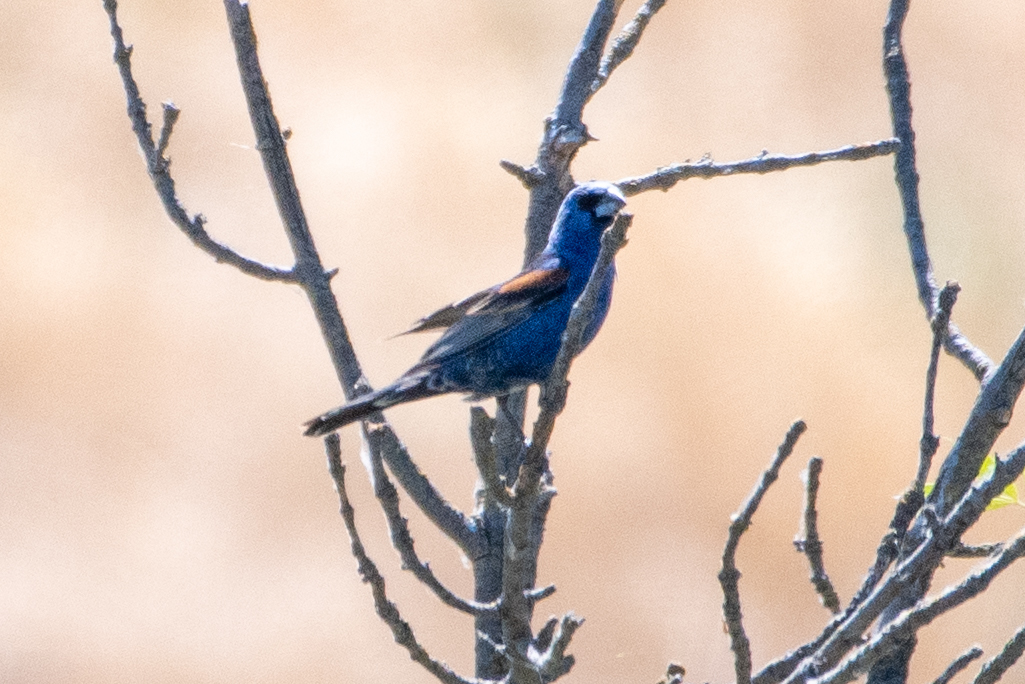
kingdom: Animalia
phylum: Chordata
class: Aves
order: Passeriformes
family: Cardinalidae
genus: Passerina
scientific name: Passerina caerulea
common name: Blue grosbeak
